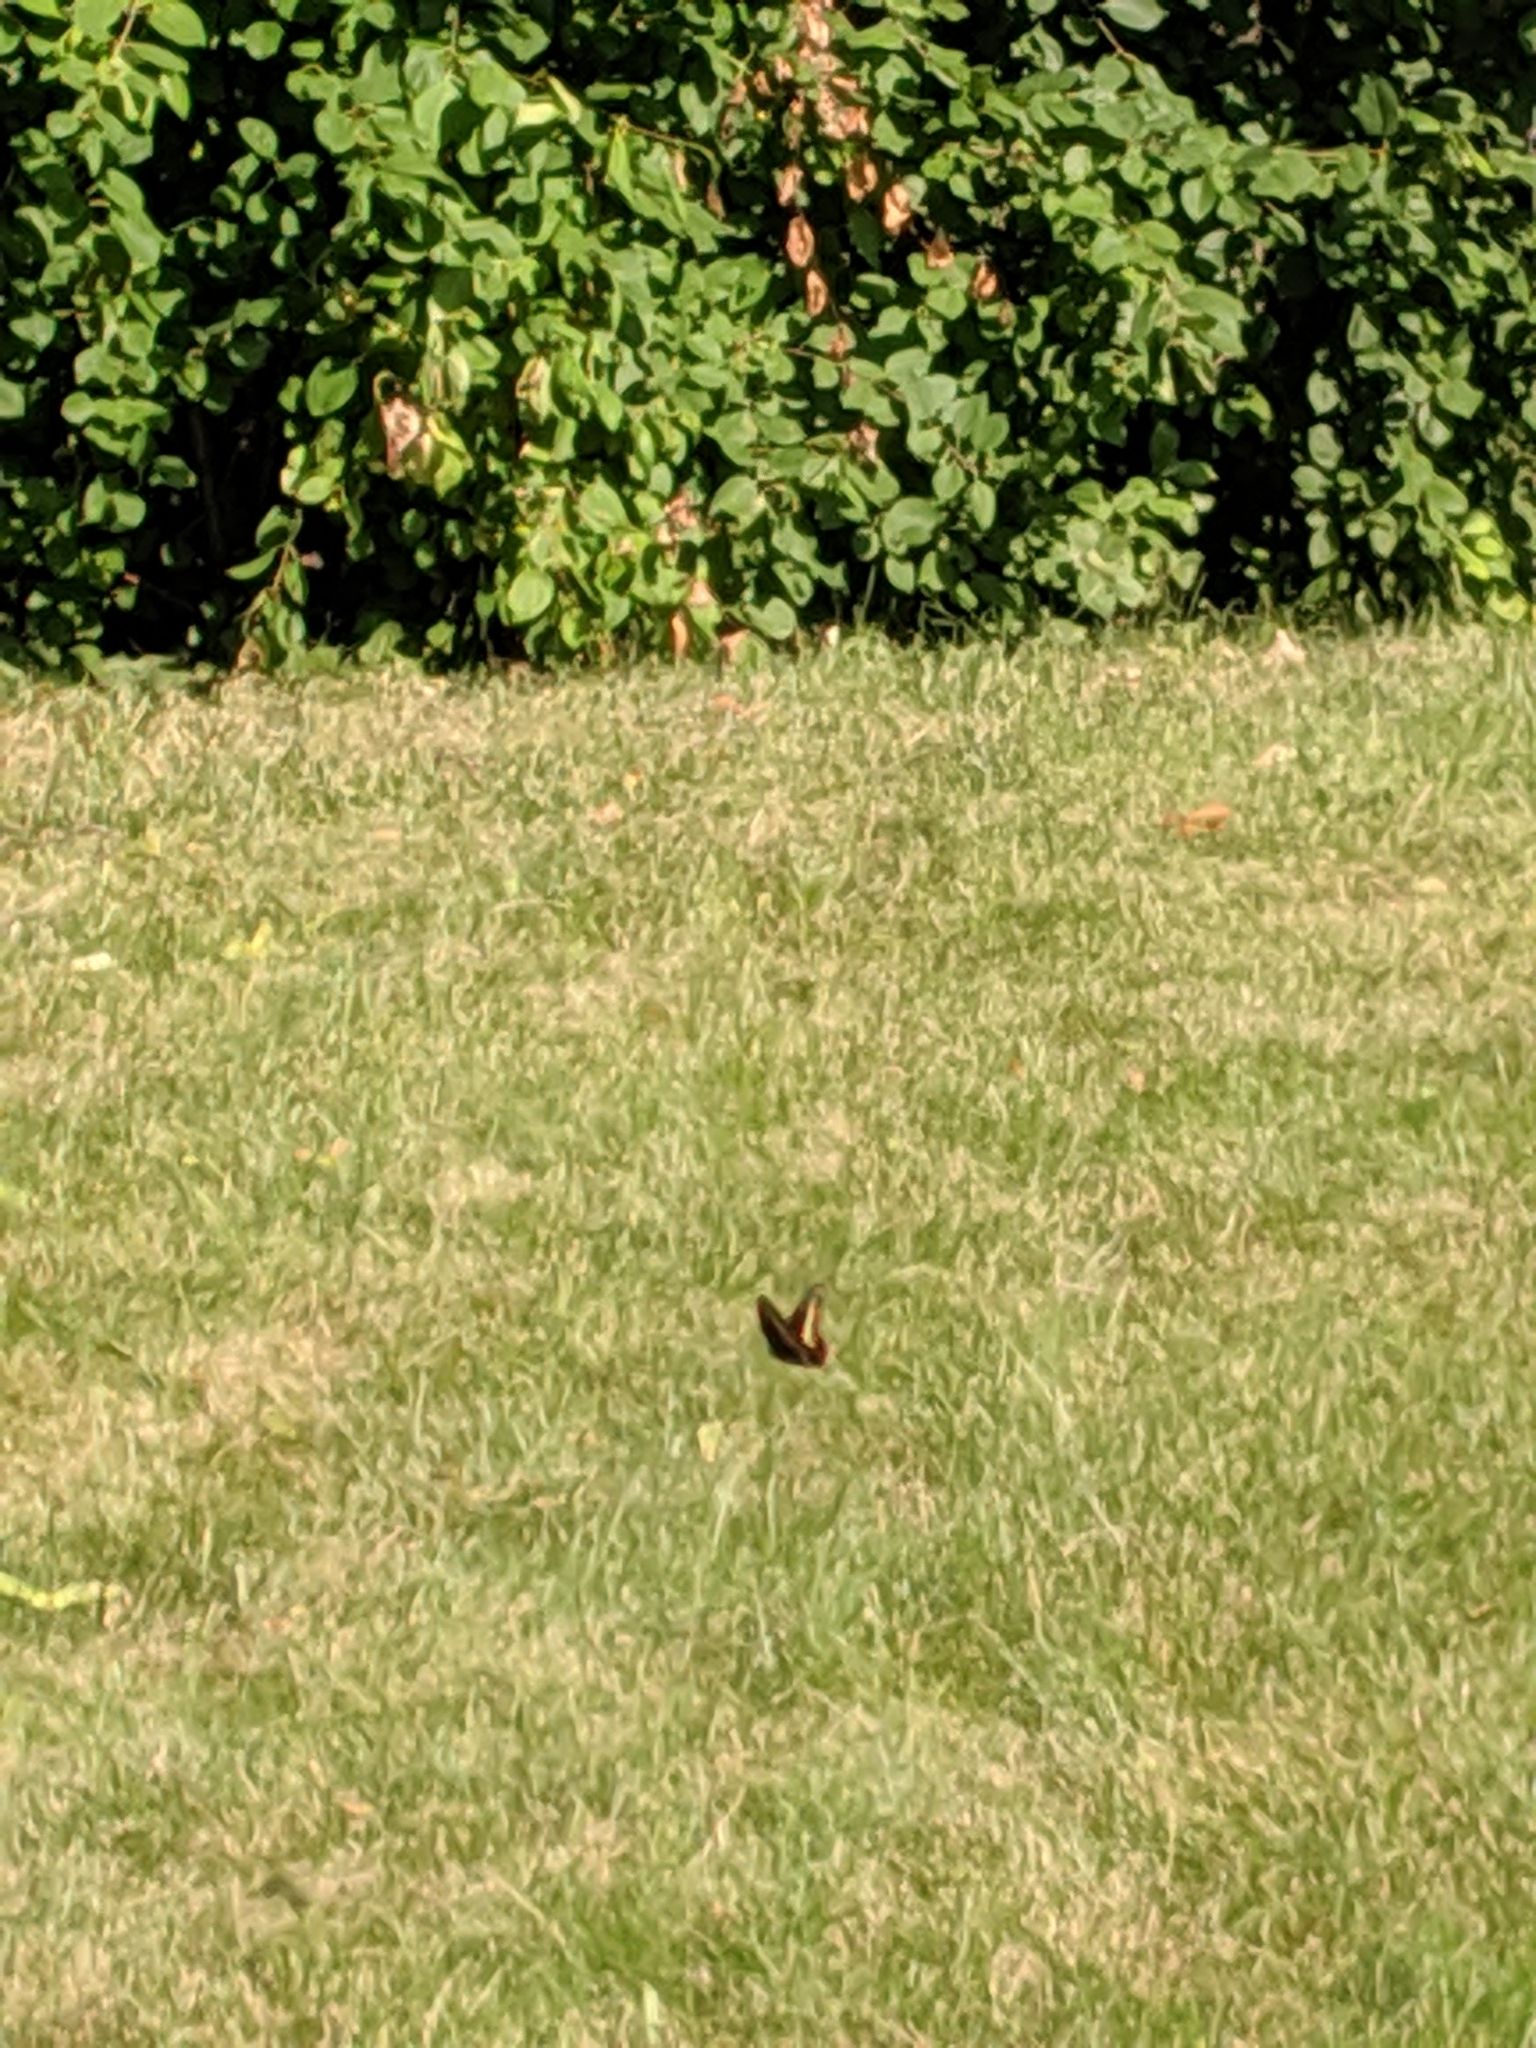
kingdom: Animalia
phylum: Arthropoda
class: Insecta
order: Lepidoptera
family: Papilionidae
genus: Papilio
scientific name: Papilio polyxenes
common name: Black swallowtail
